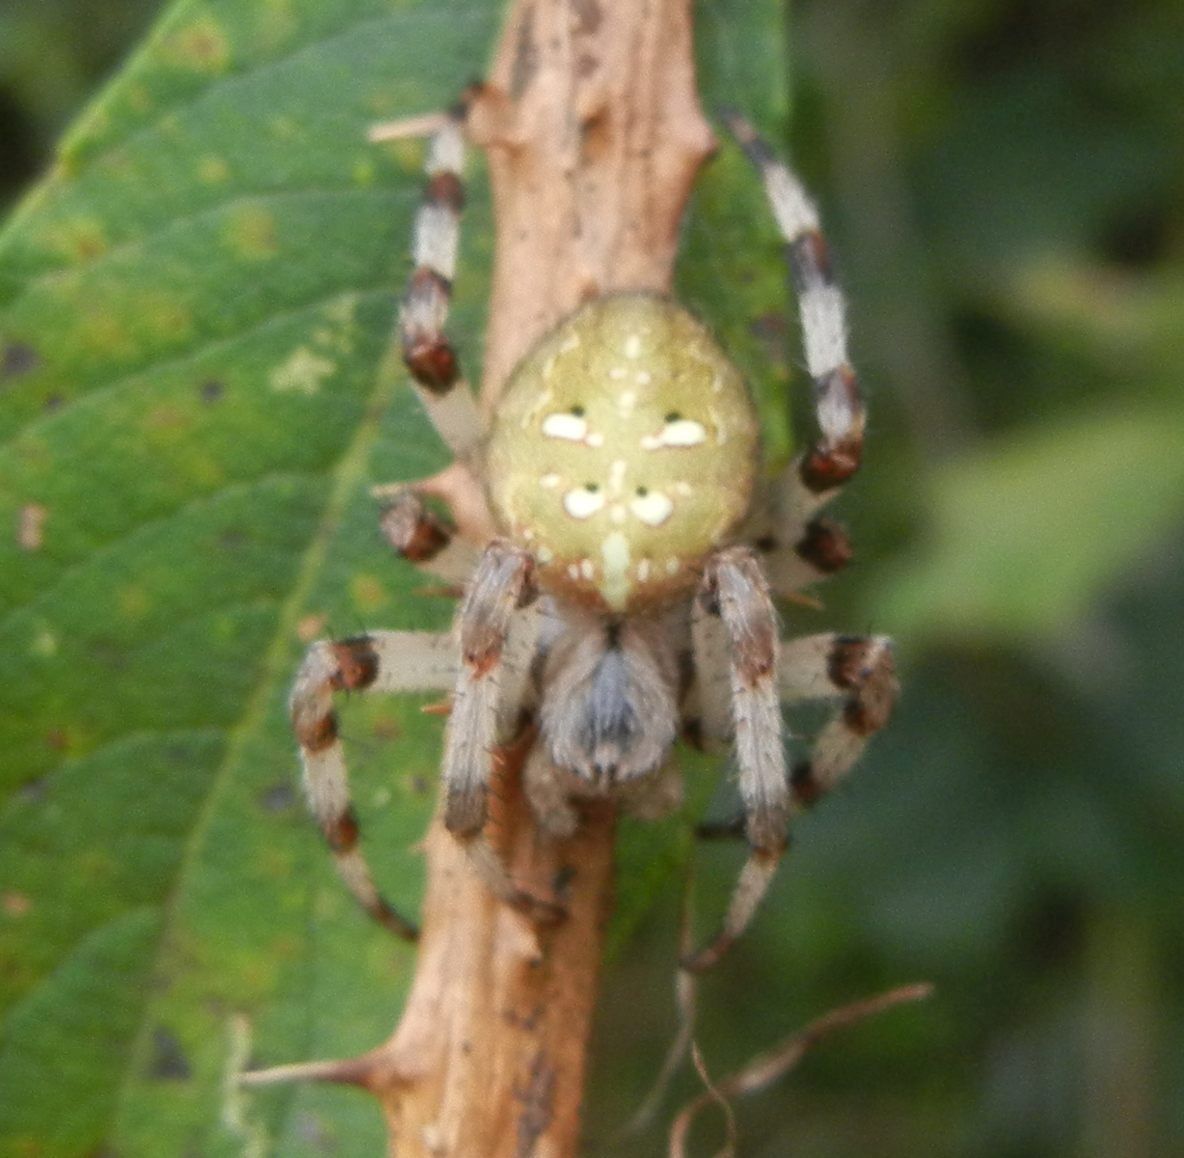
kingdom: Animalia
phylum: Arthropoda
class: Arachnida
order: Araneae
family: Araneidae
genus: Araneus
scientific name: Araneus quadratus
